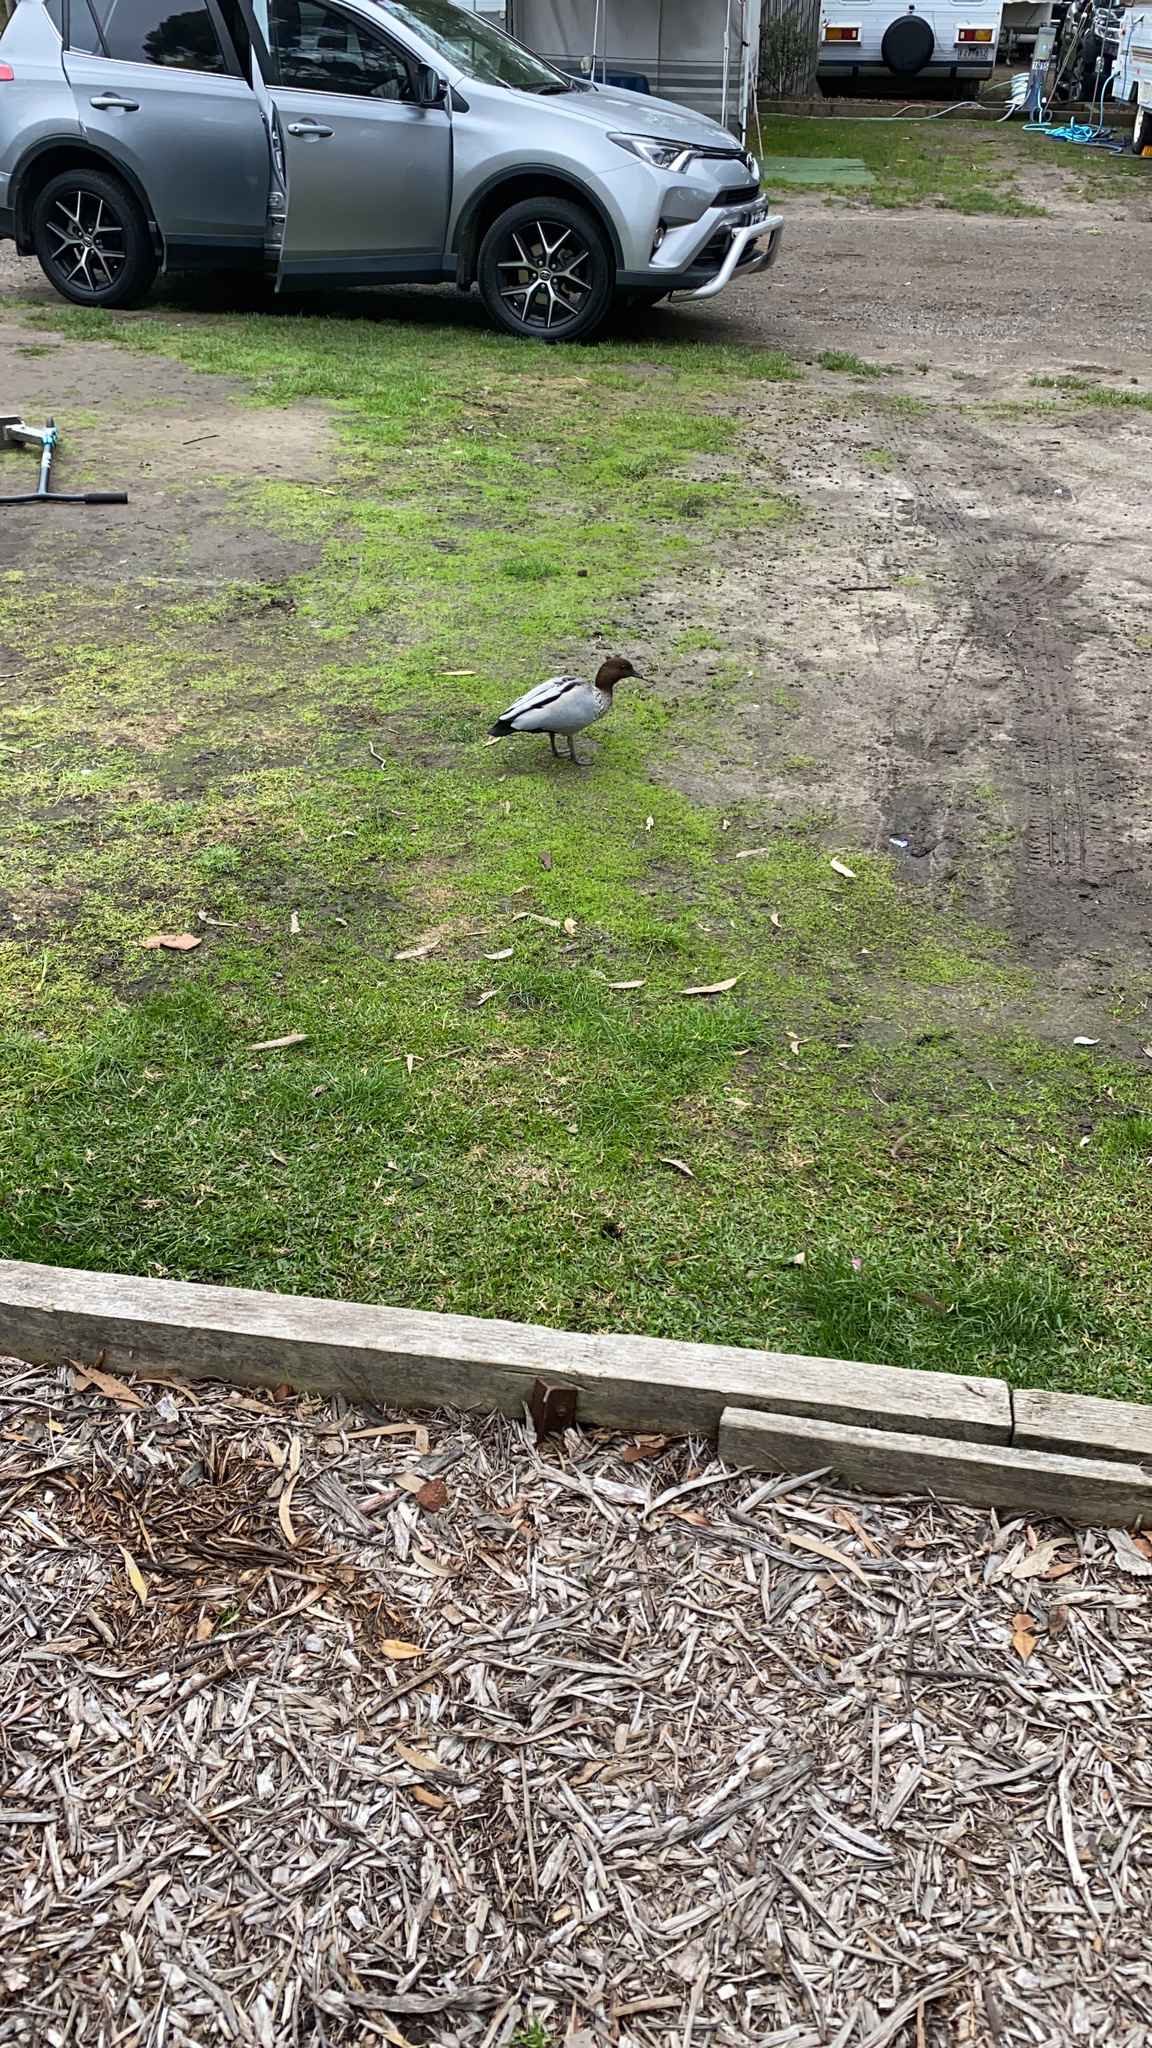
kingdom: Animalia
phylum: Chordata
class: Aves
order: Anseriformes
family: Anatidae
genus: Chenonetta
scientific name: Chenonetta jubata
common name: Maned duck
